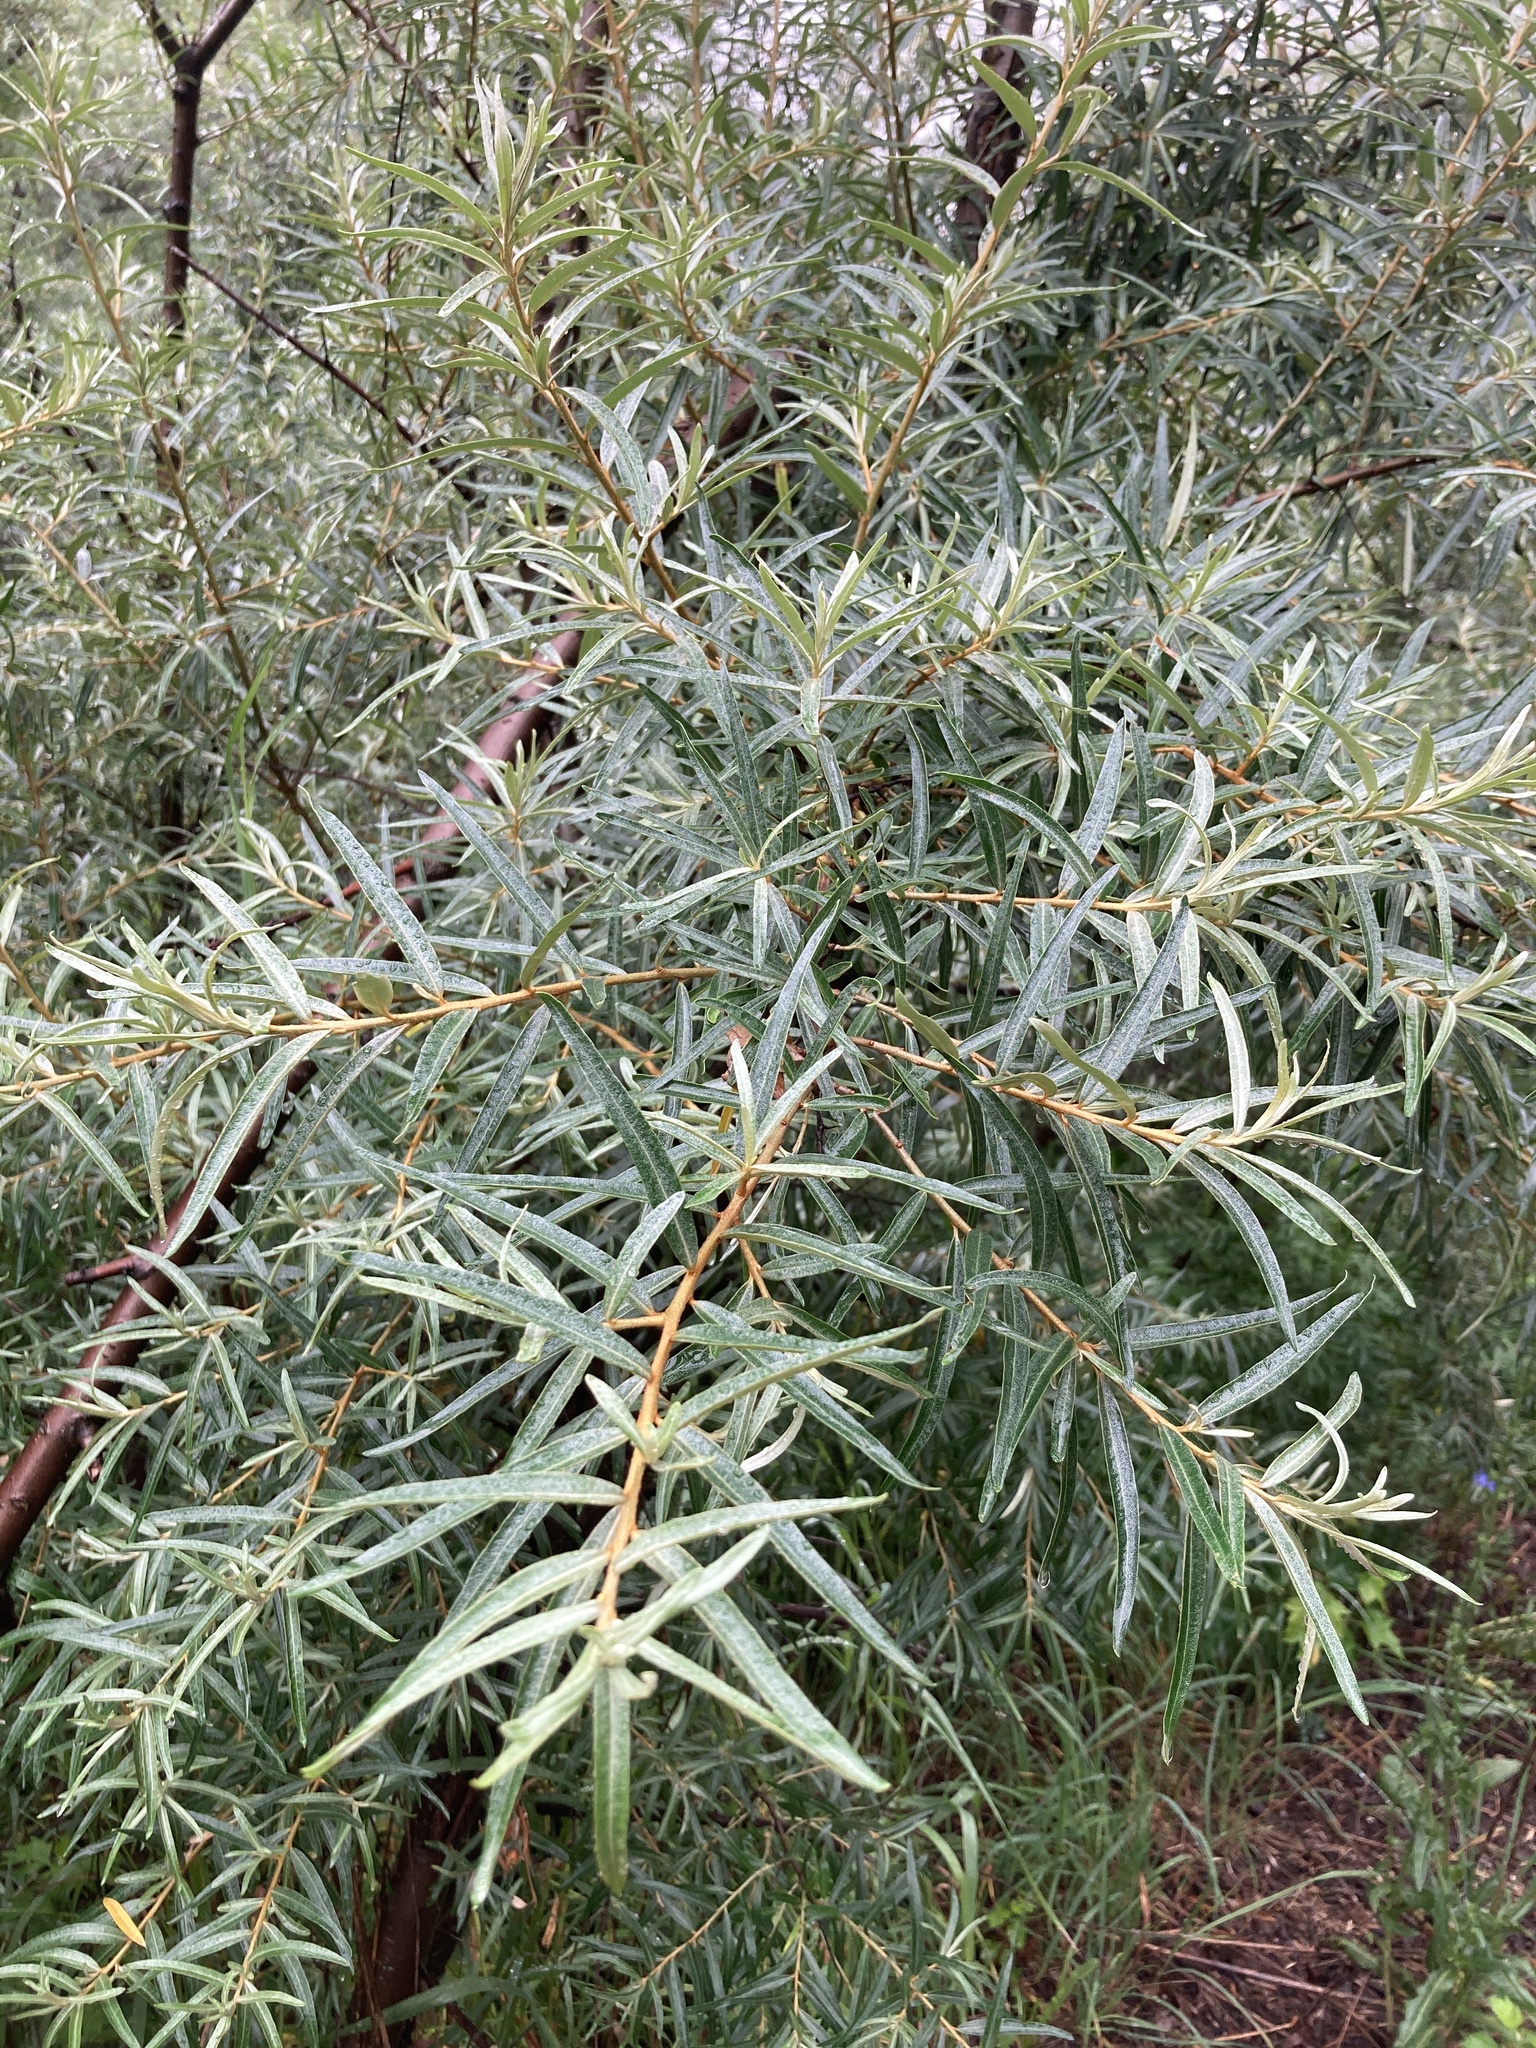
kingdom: Plantae
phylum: Tracheophyta
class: Magnoliopsida
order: Rosales
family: Elaeagnaceae
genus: Hippophae
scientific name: Hippophae rhamnoides
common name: Sea-buckthorn
